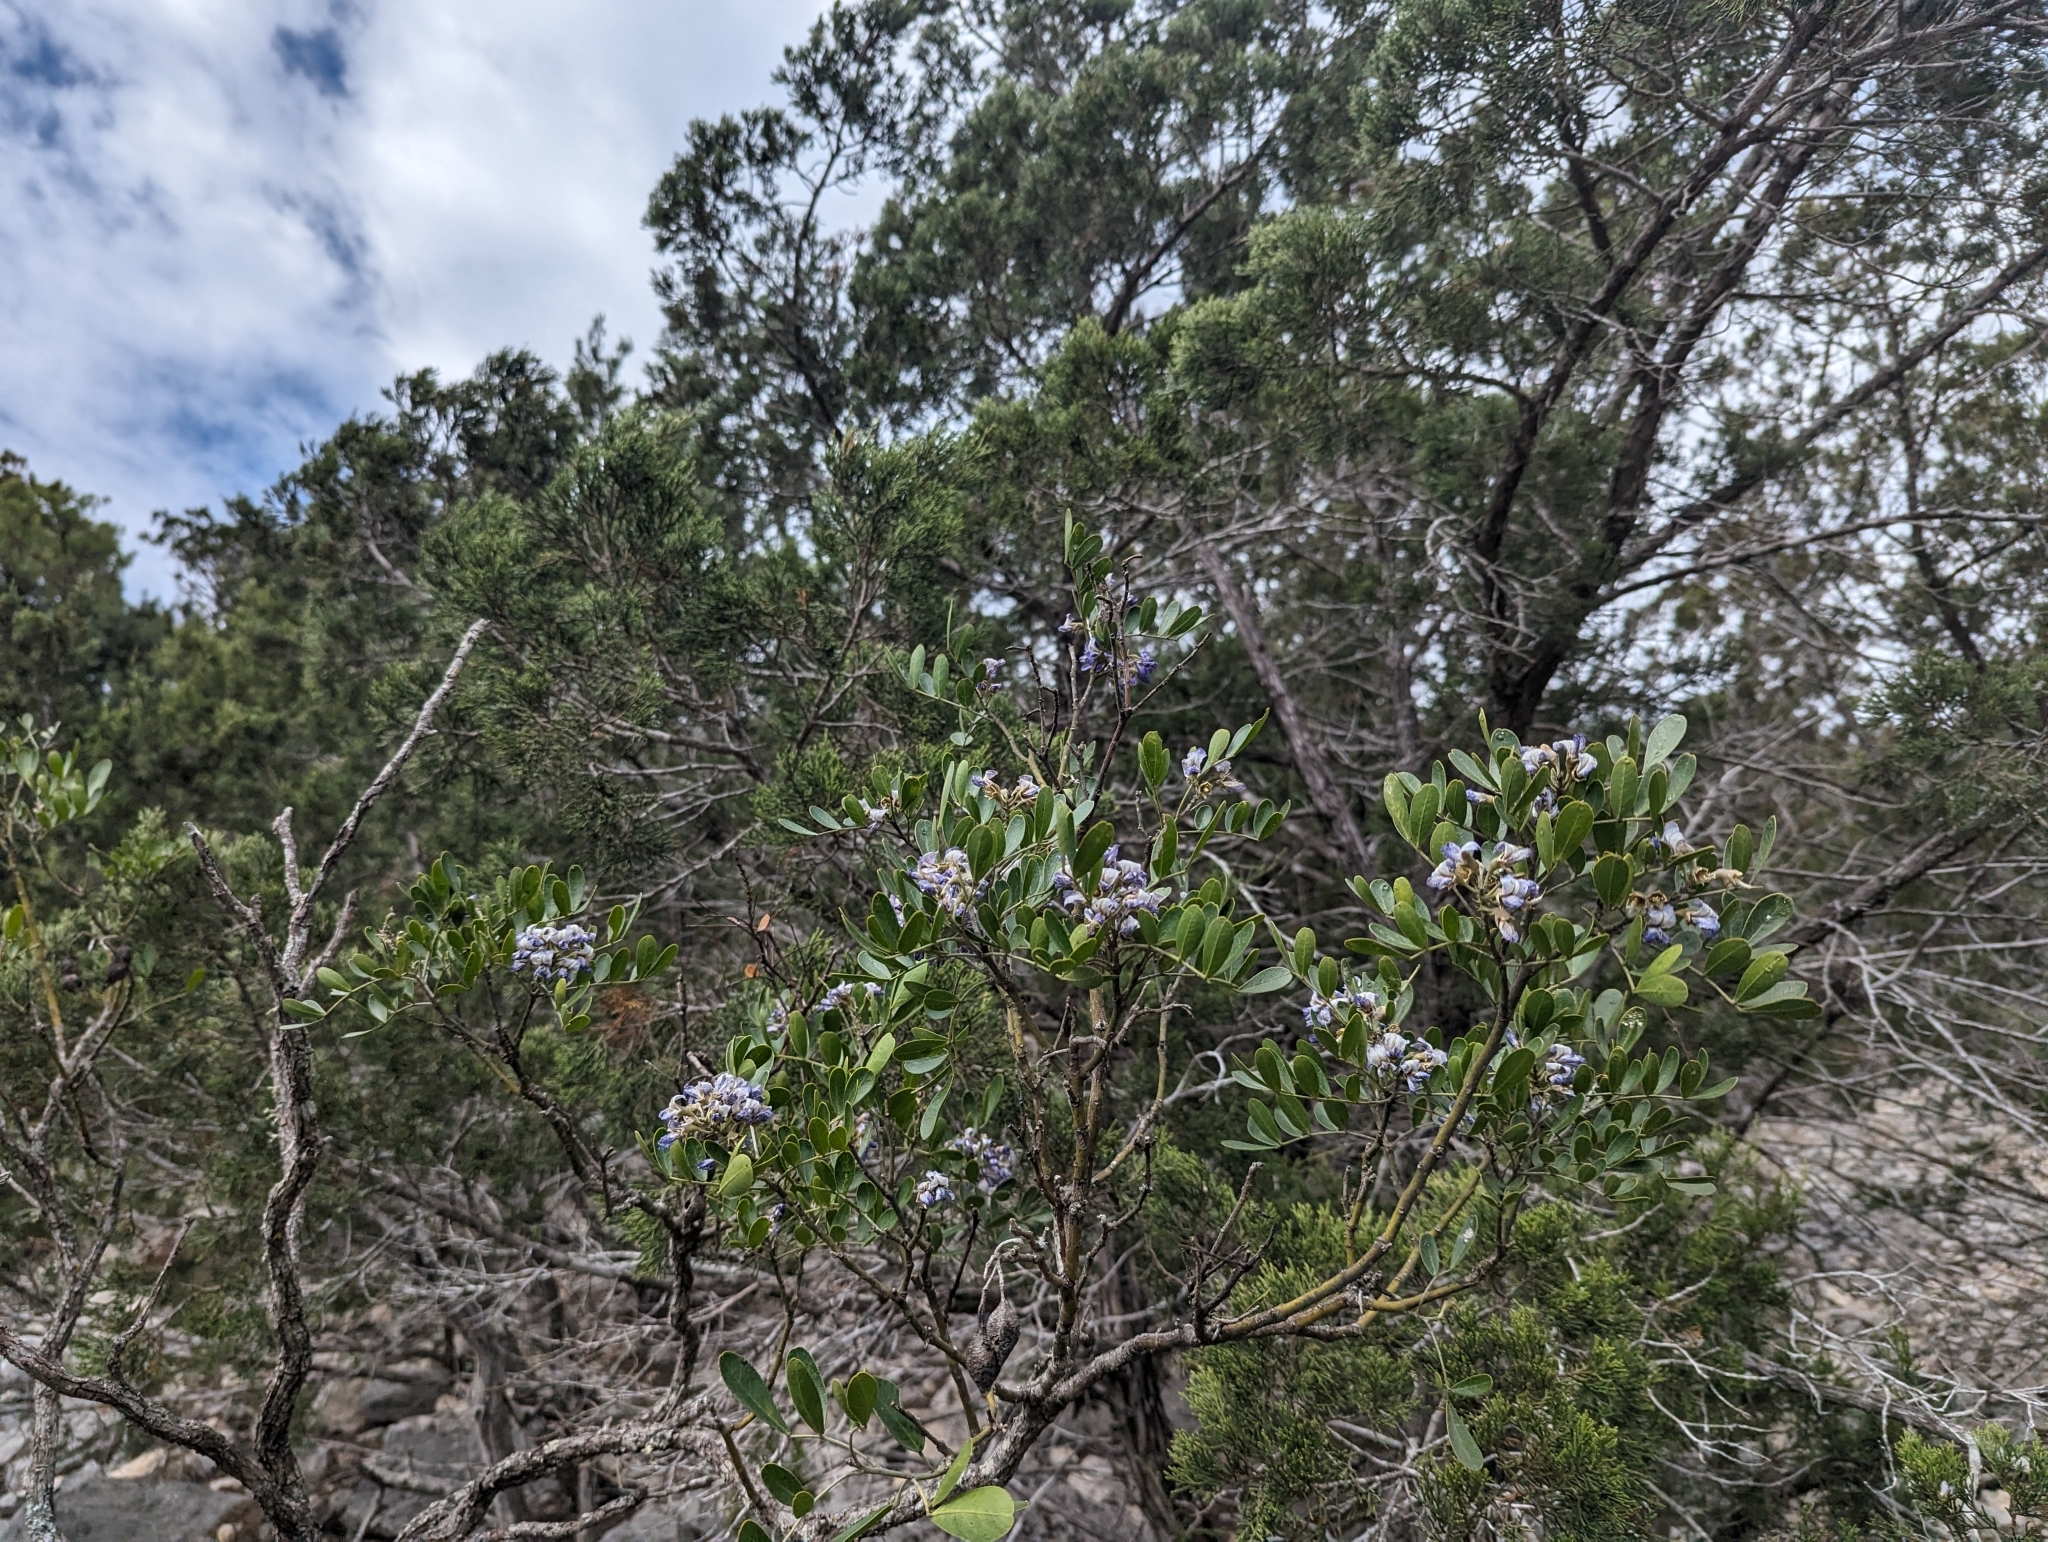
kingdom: Plantae
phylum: Tracheophyta
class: Magnoliopsida
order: Fabales
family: Fabaceae
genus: Dermatophyllum
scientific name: Dermatophyllum secundiflorum
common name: Texas-mountain-laurel
